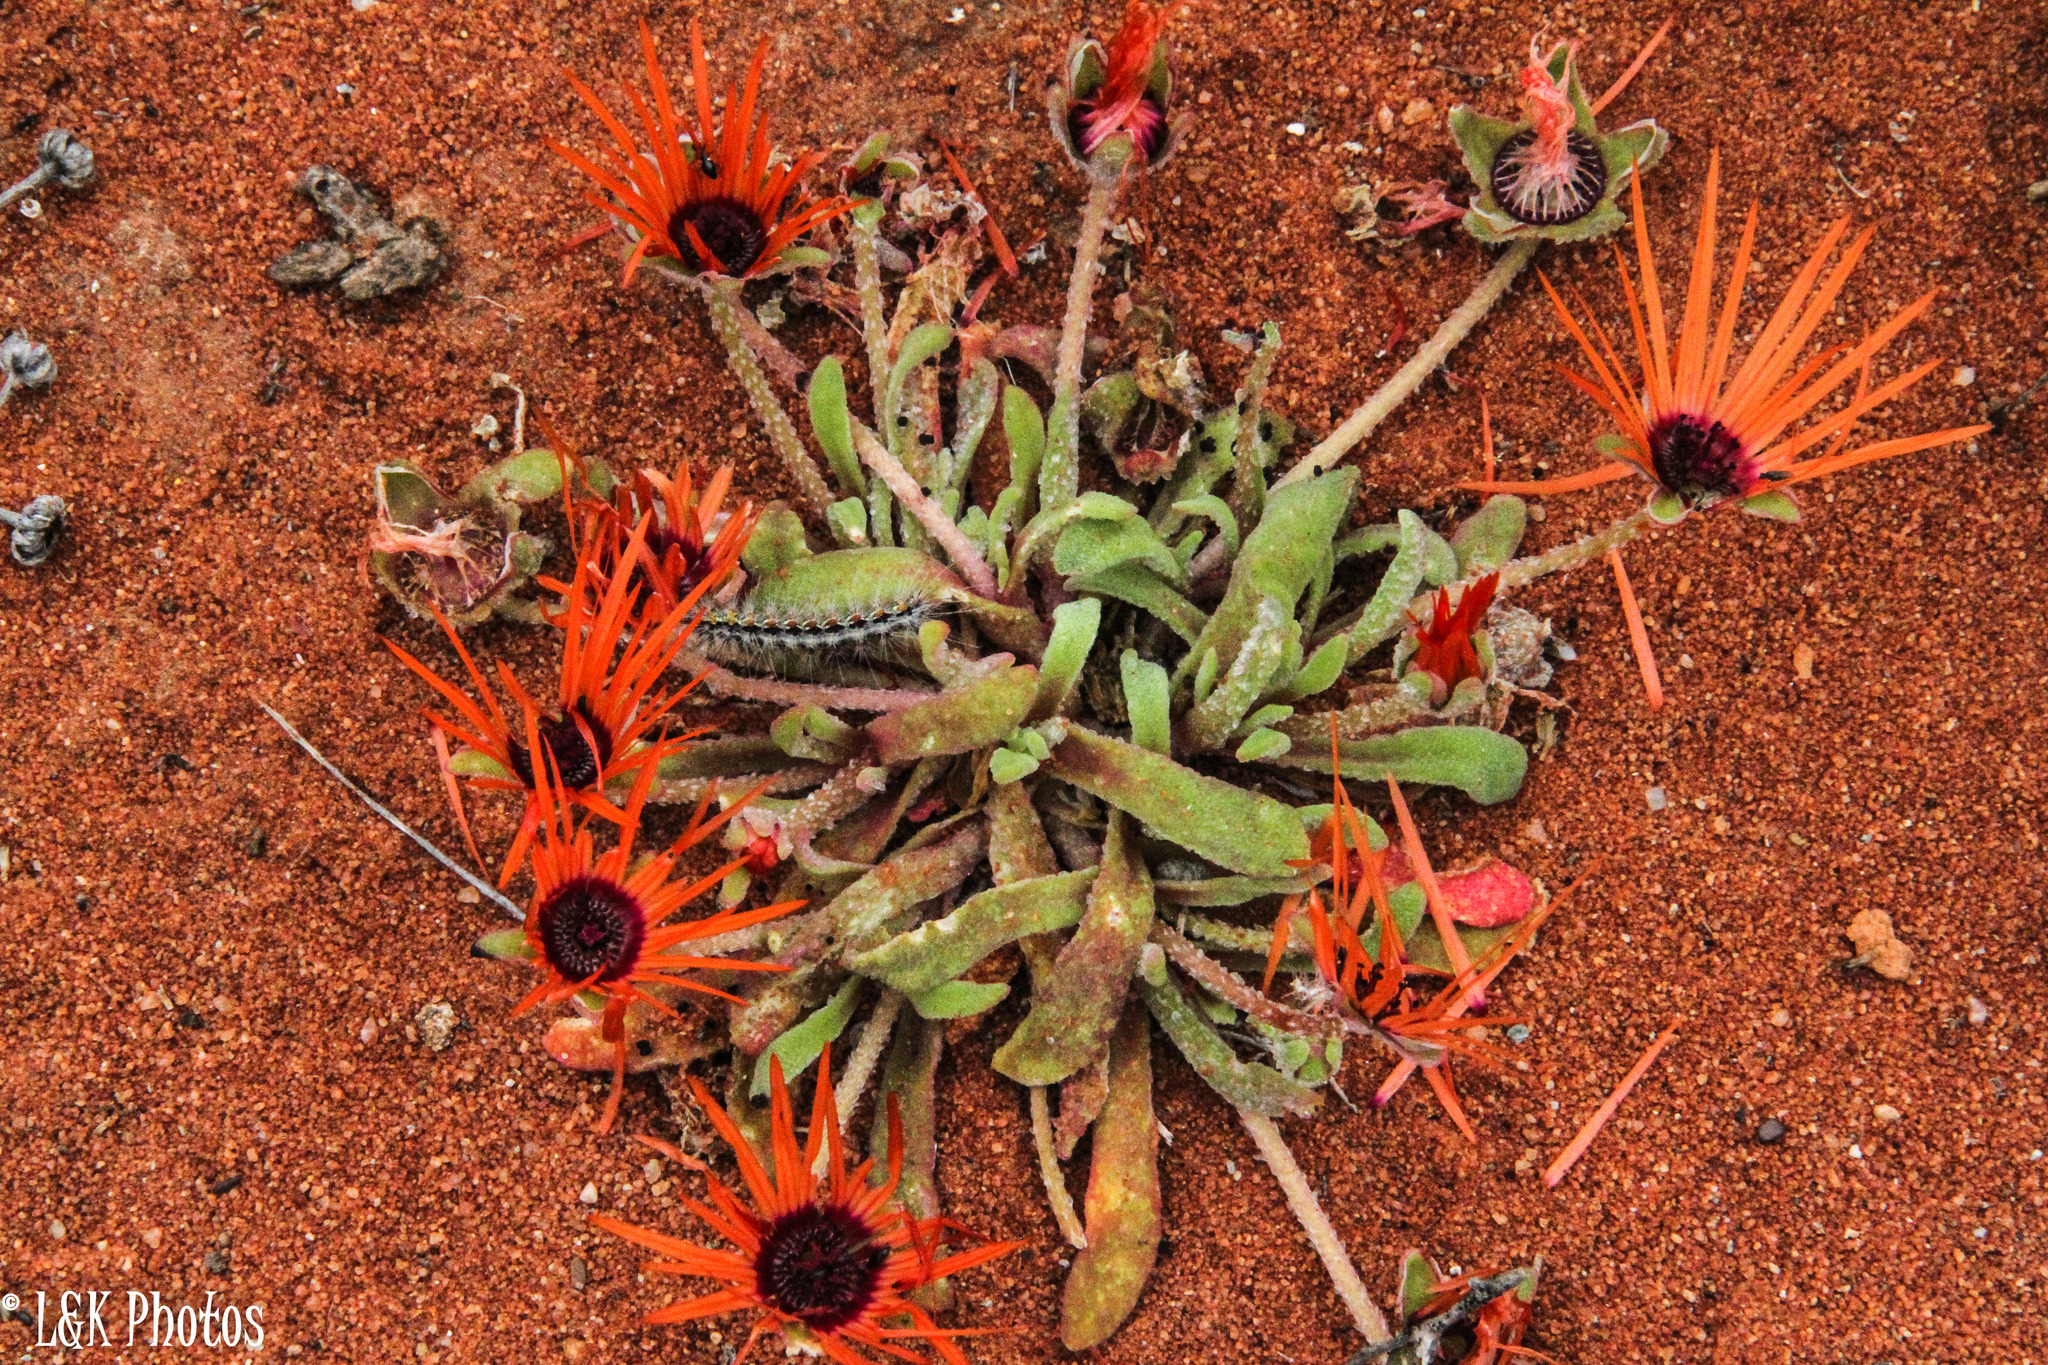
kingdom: Plantae
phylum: Tracheophyta
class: Magnoliopsida
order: Caryophyllales
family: Aizoaceae
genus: Cleretum
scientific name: Cleretum rourkei
